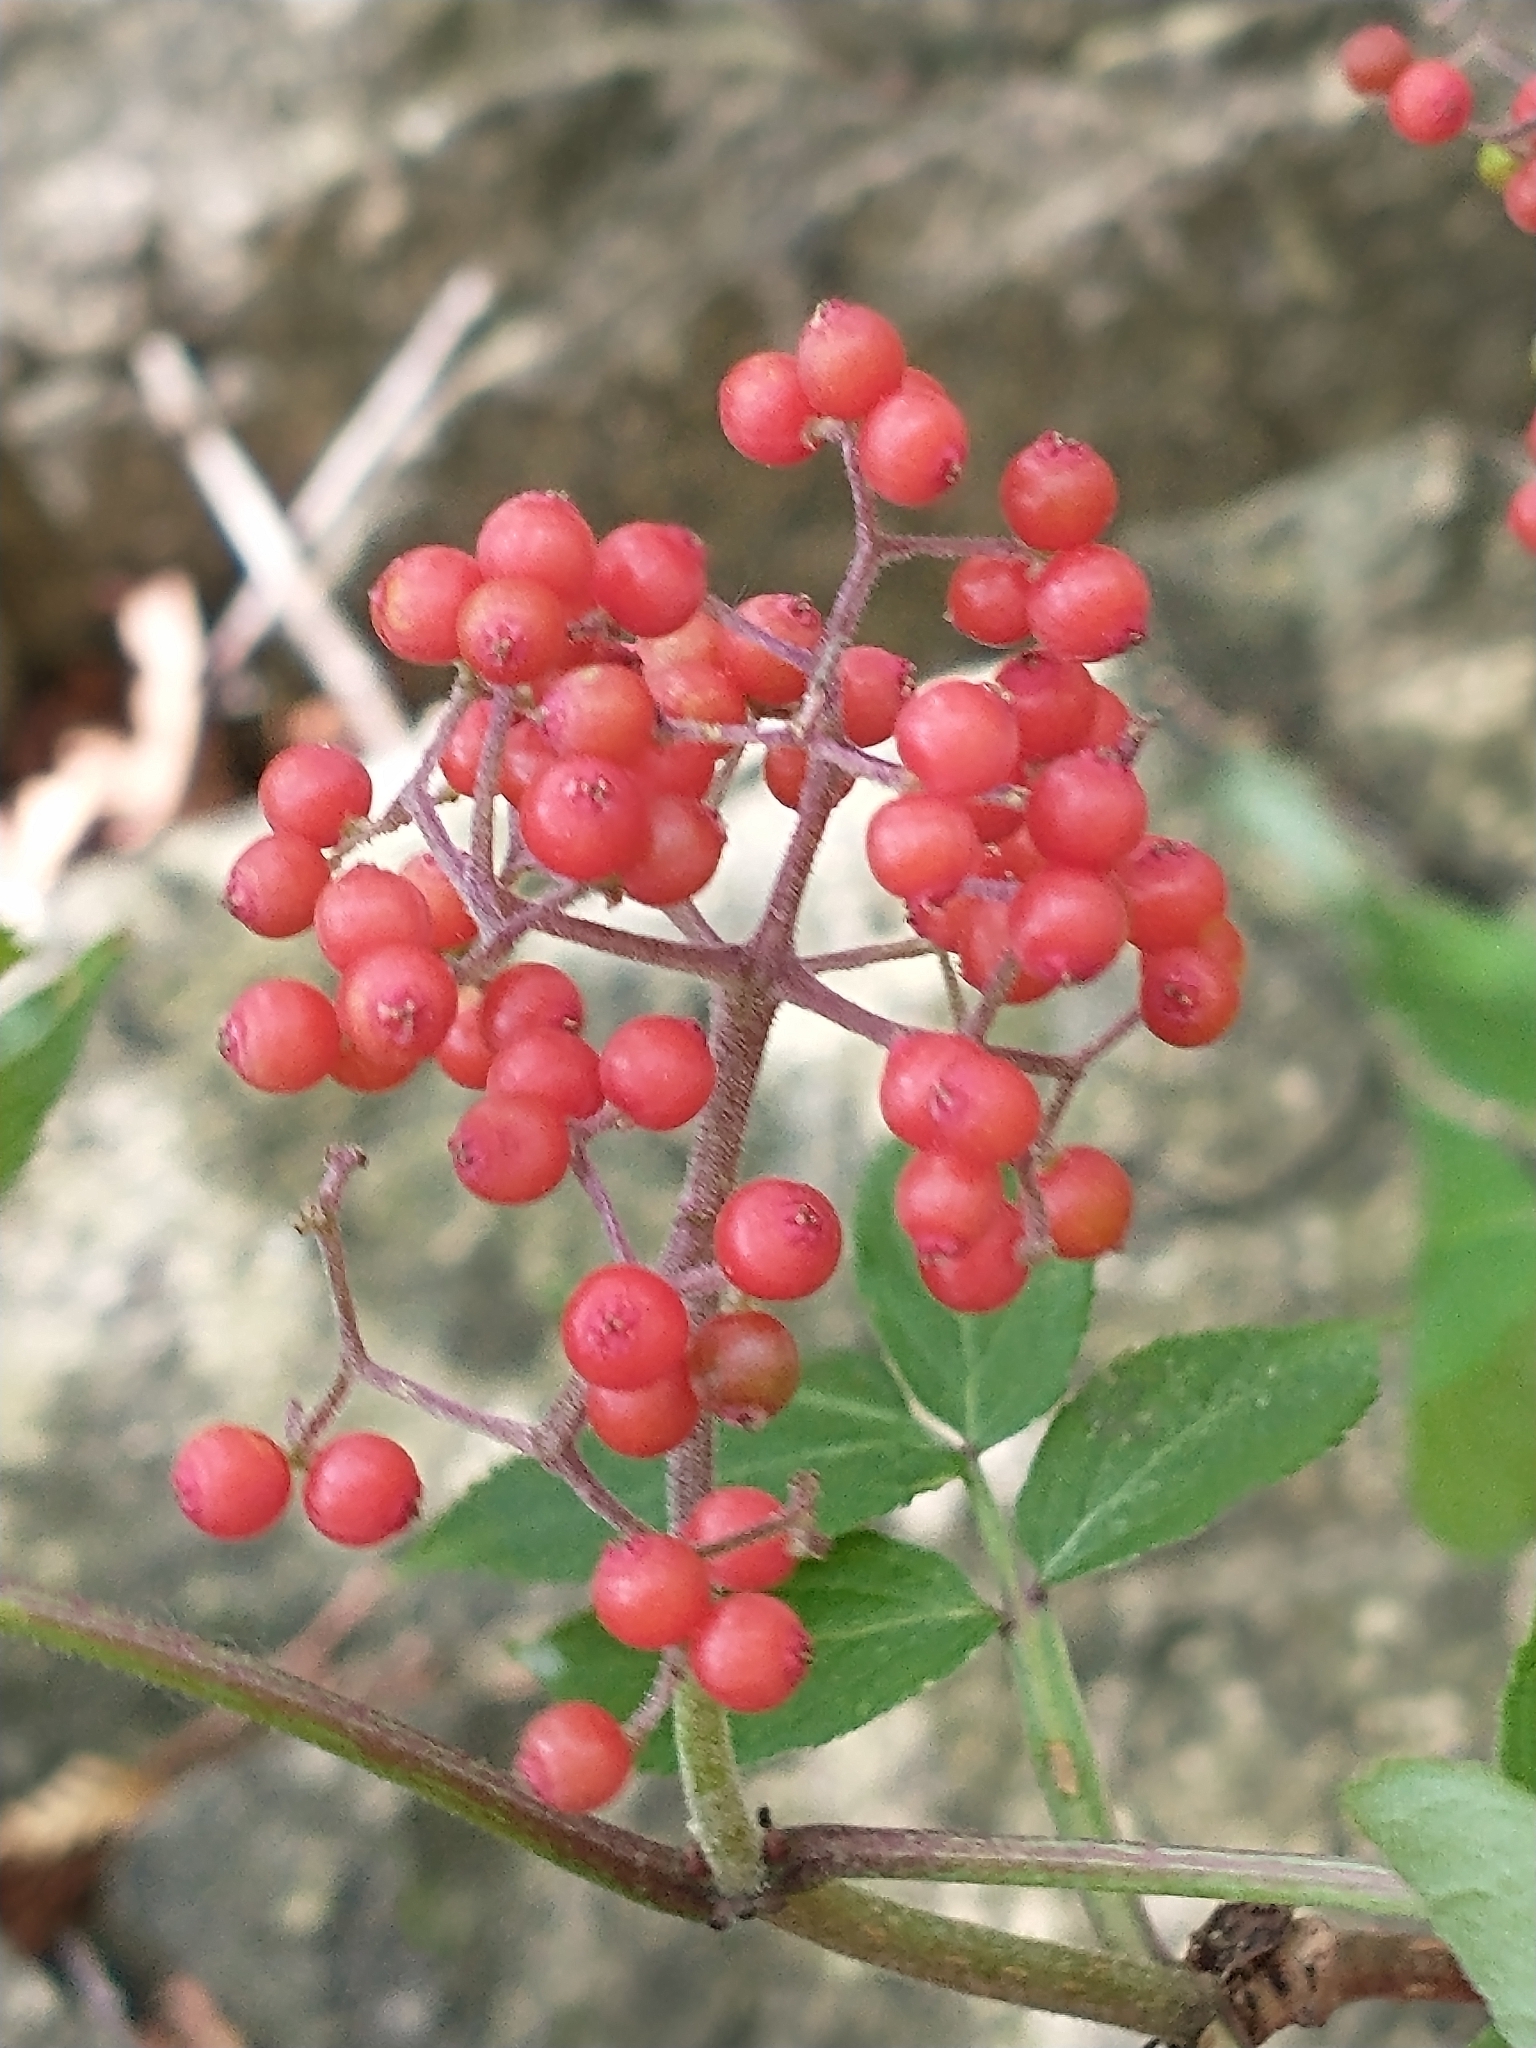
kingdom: Plantae
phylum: Tracheophyta
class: Magnoliopsida
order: Dipsacales
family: Viburnaceae
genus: Sambucus
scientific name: Sambucus racemosa
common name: Red-berried elder
